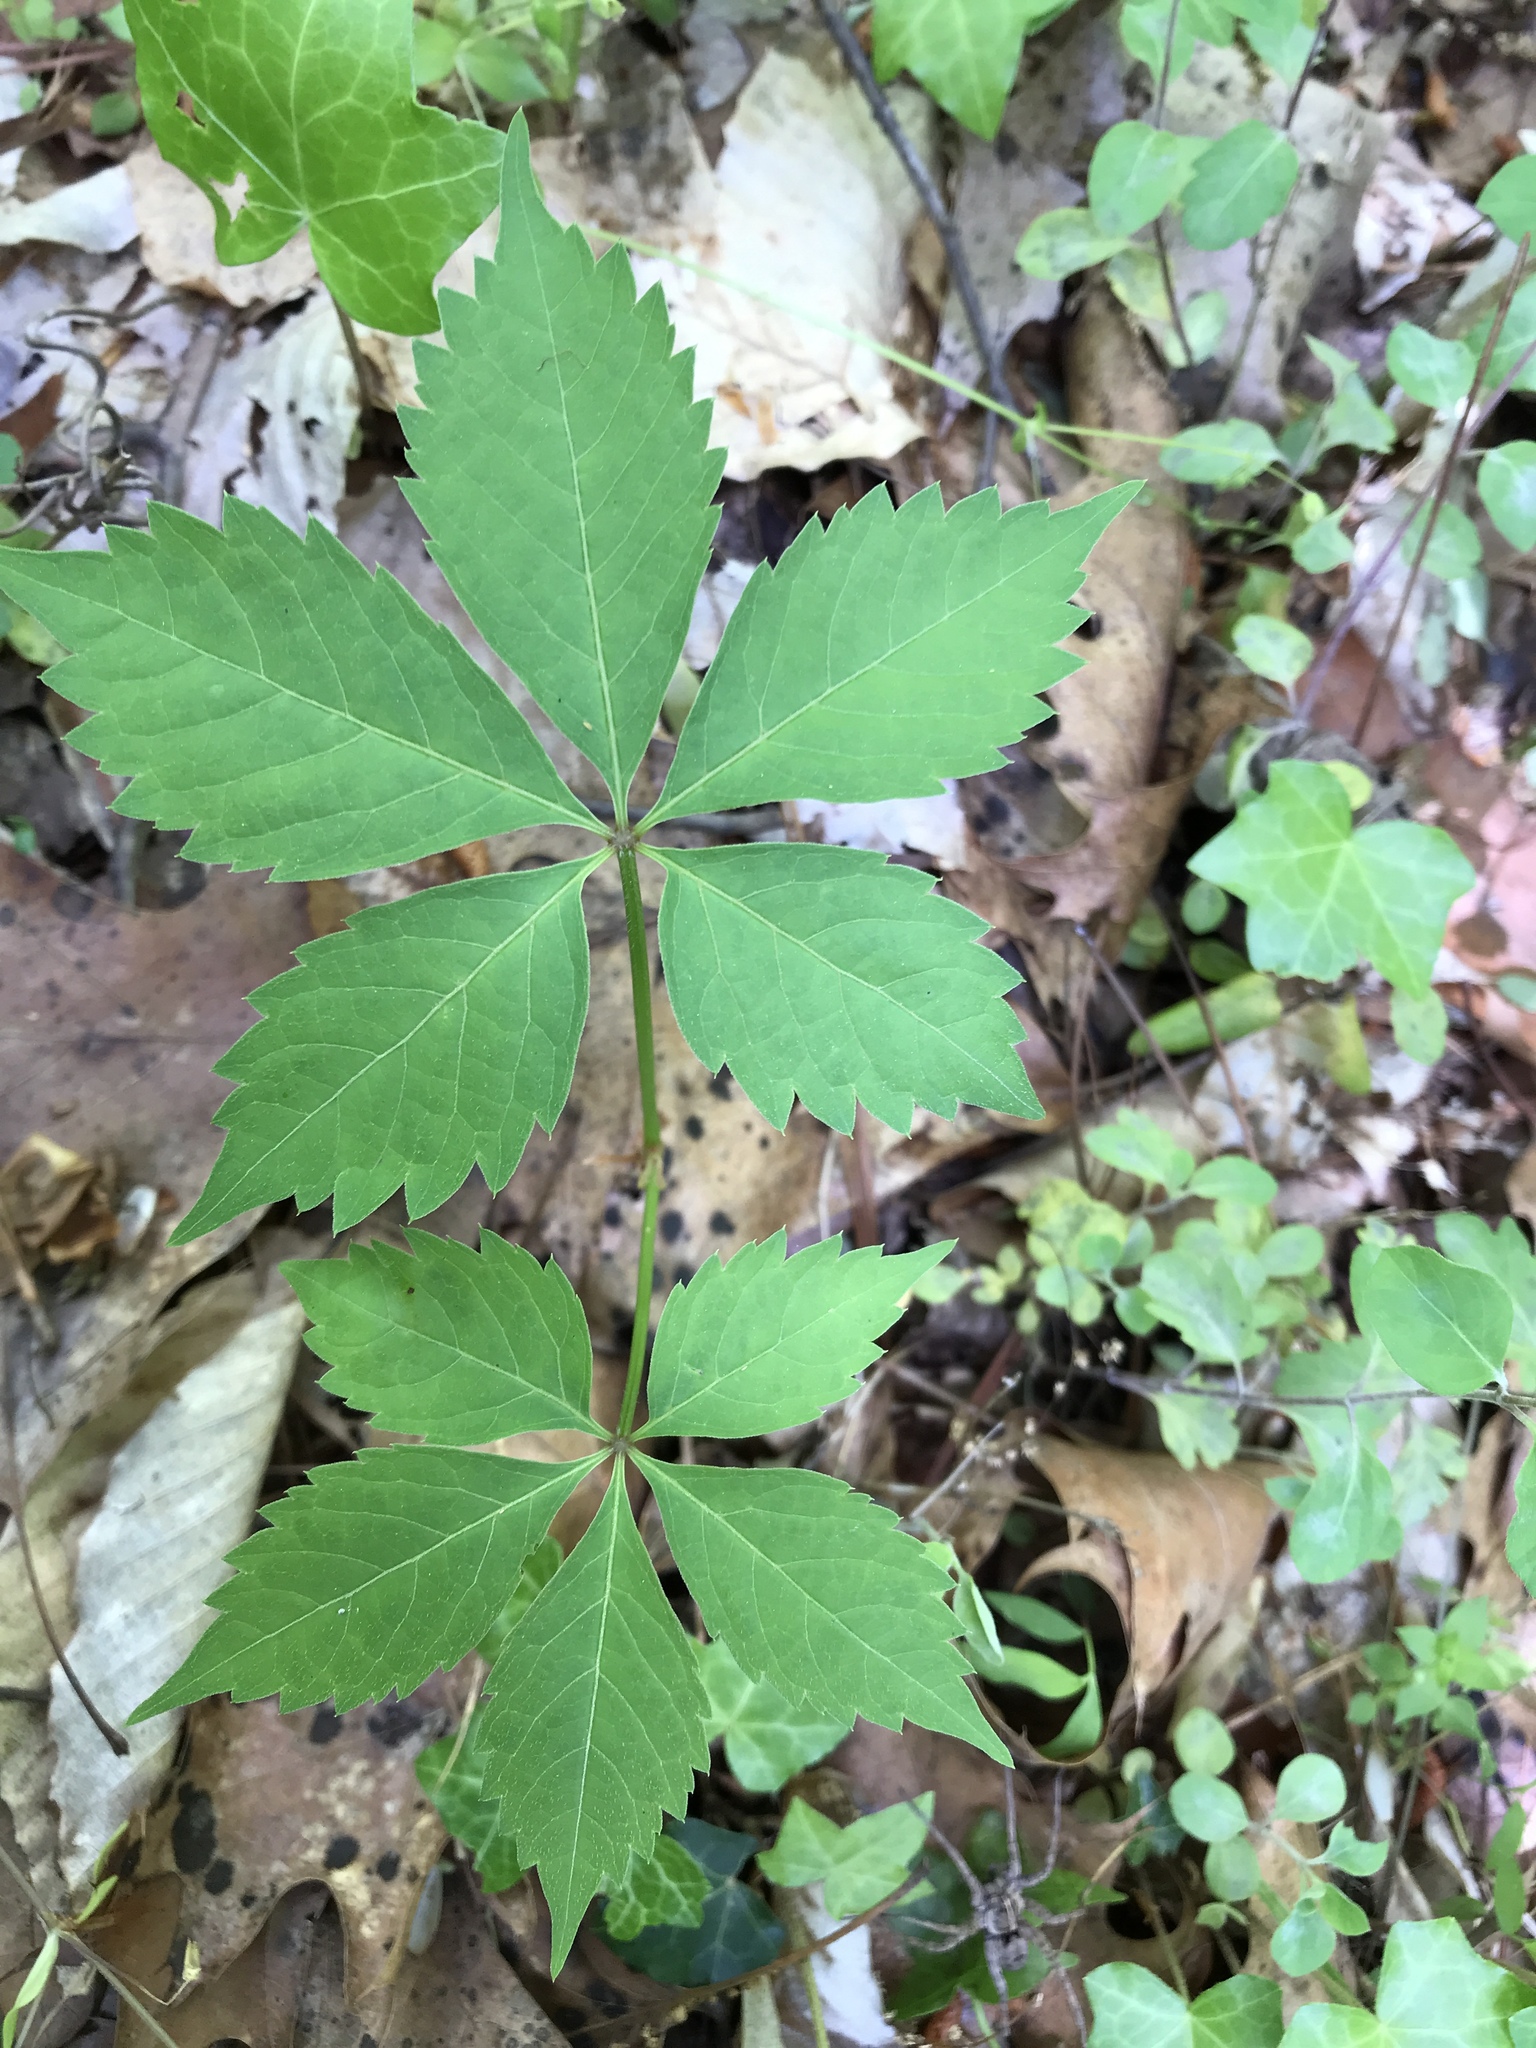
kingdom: Plantae
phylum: Tracheophyta
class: Magnoliopsida
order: Vitales
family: Vitaceae
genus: Parthenocissus
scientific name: Parthenocissus quinquefolia
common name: Virginia-creeper
